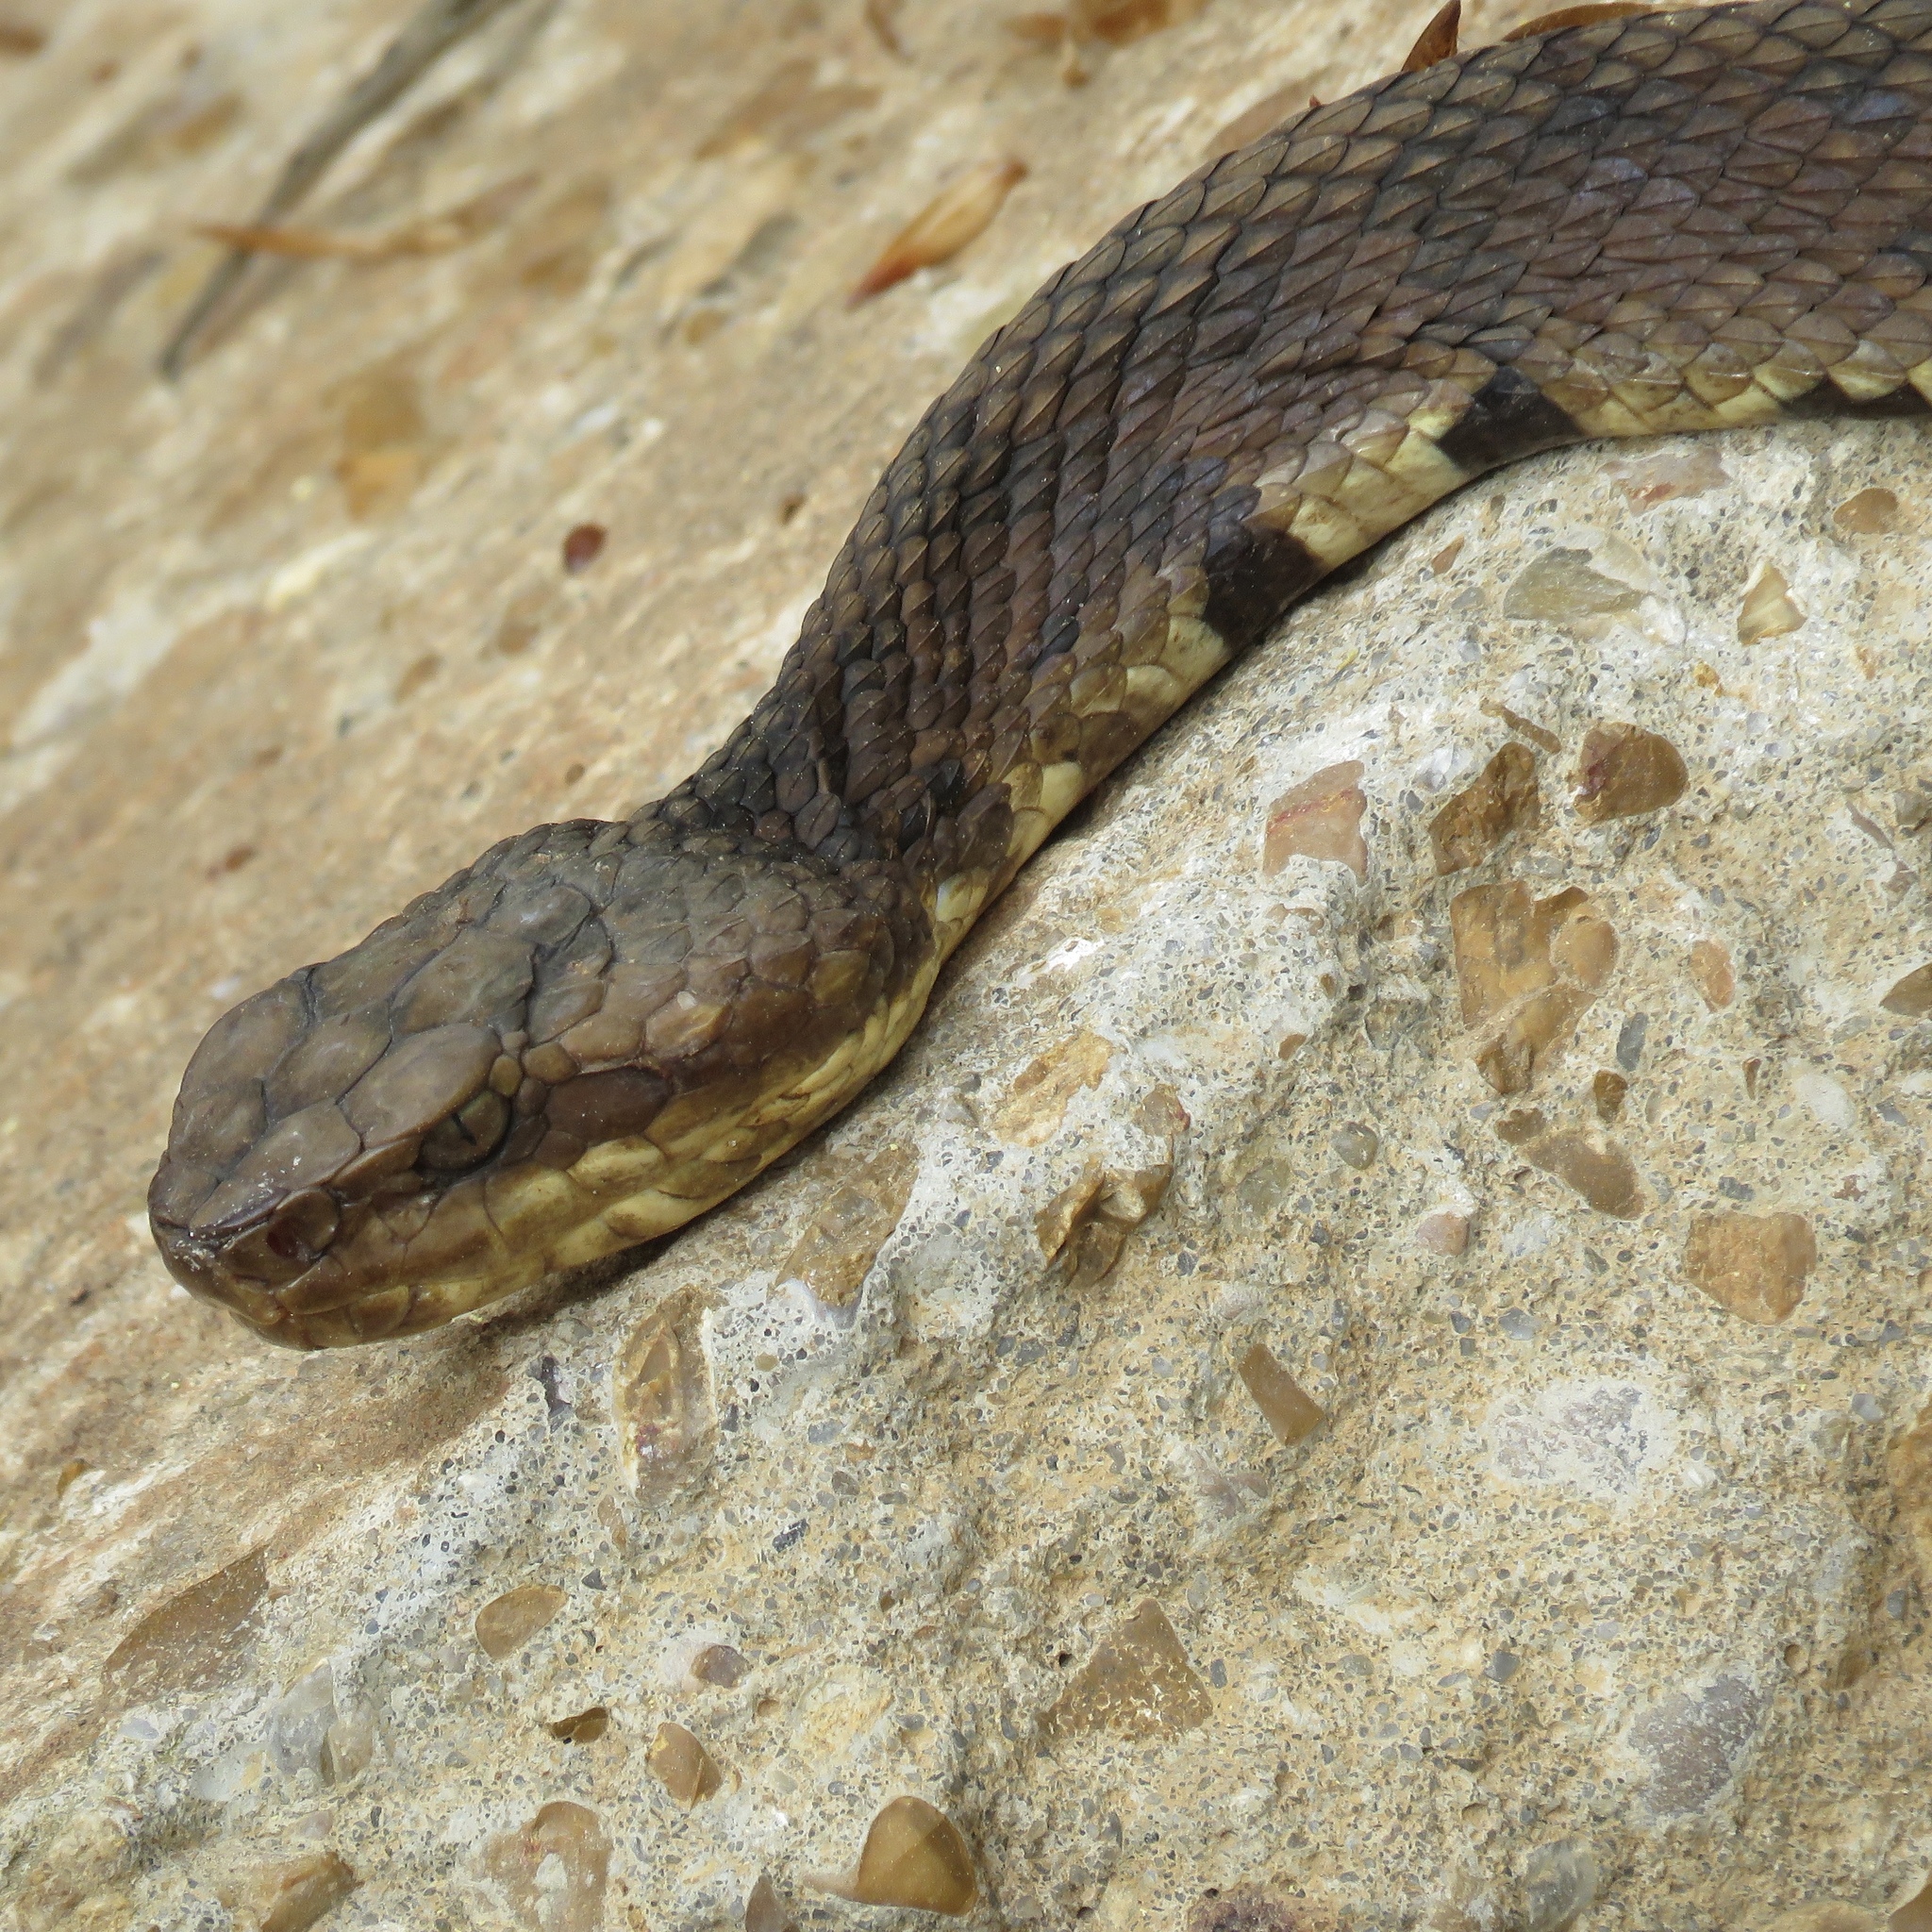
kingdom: Animalia
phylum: Chordata
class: Squamata
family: Viperidae
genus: Agkistrodon
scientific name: Agkistrodon piscivorus
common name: Cottonmouth
